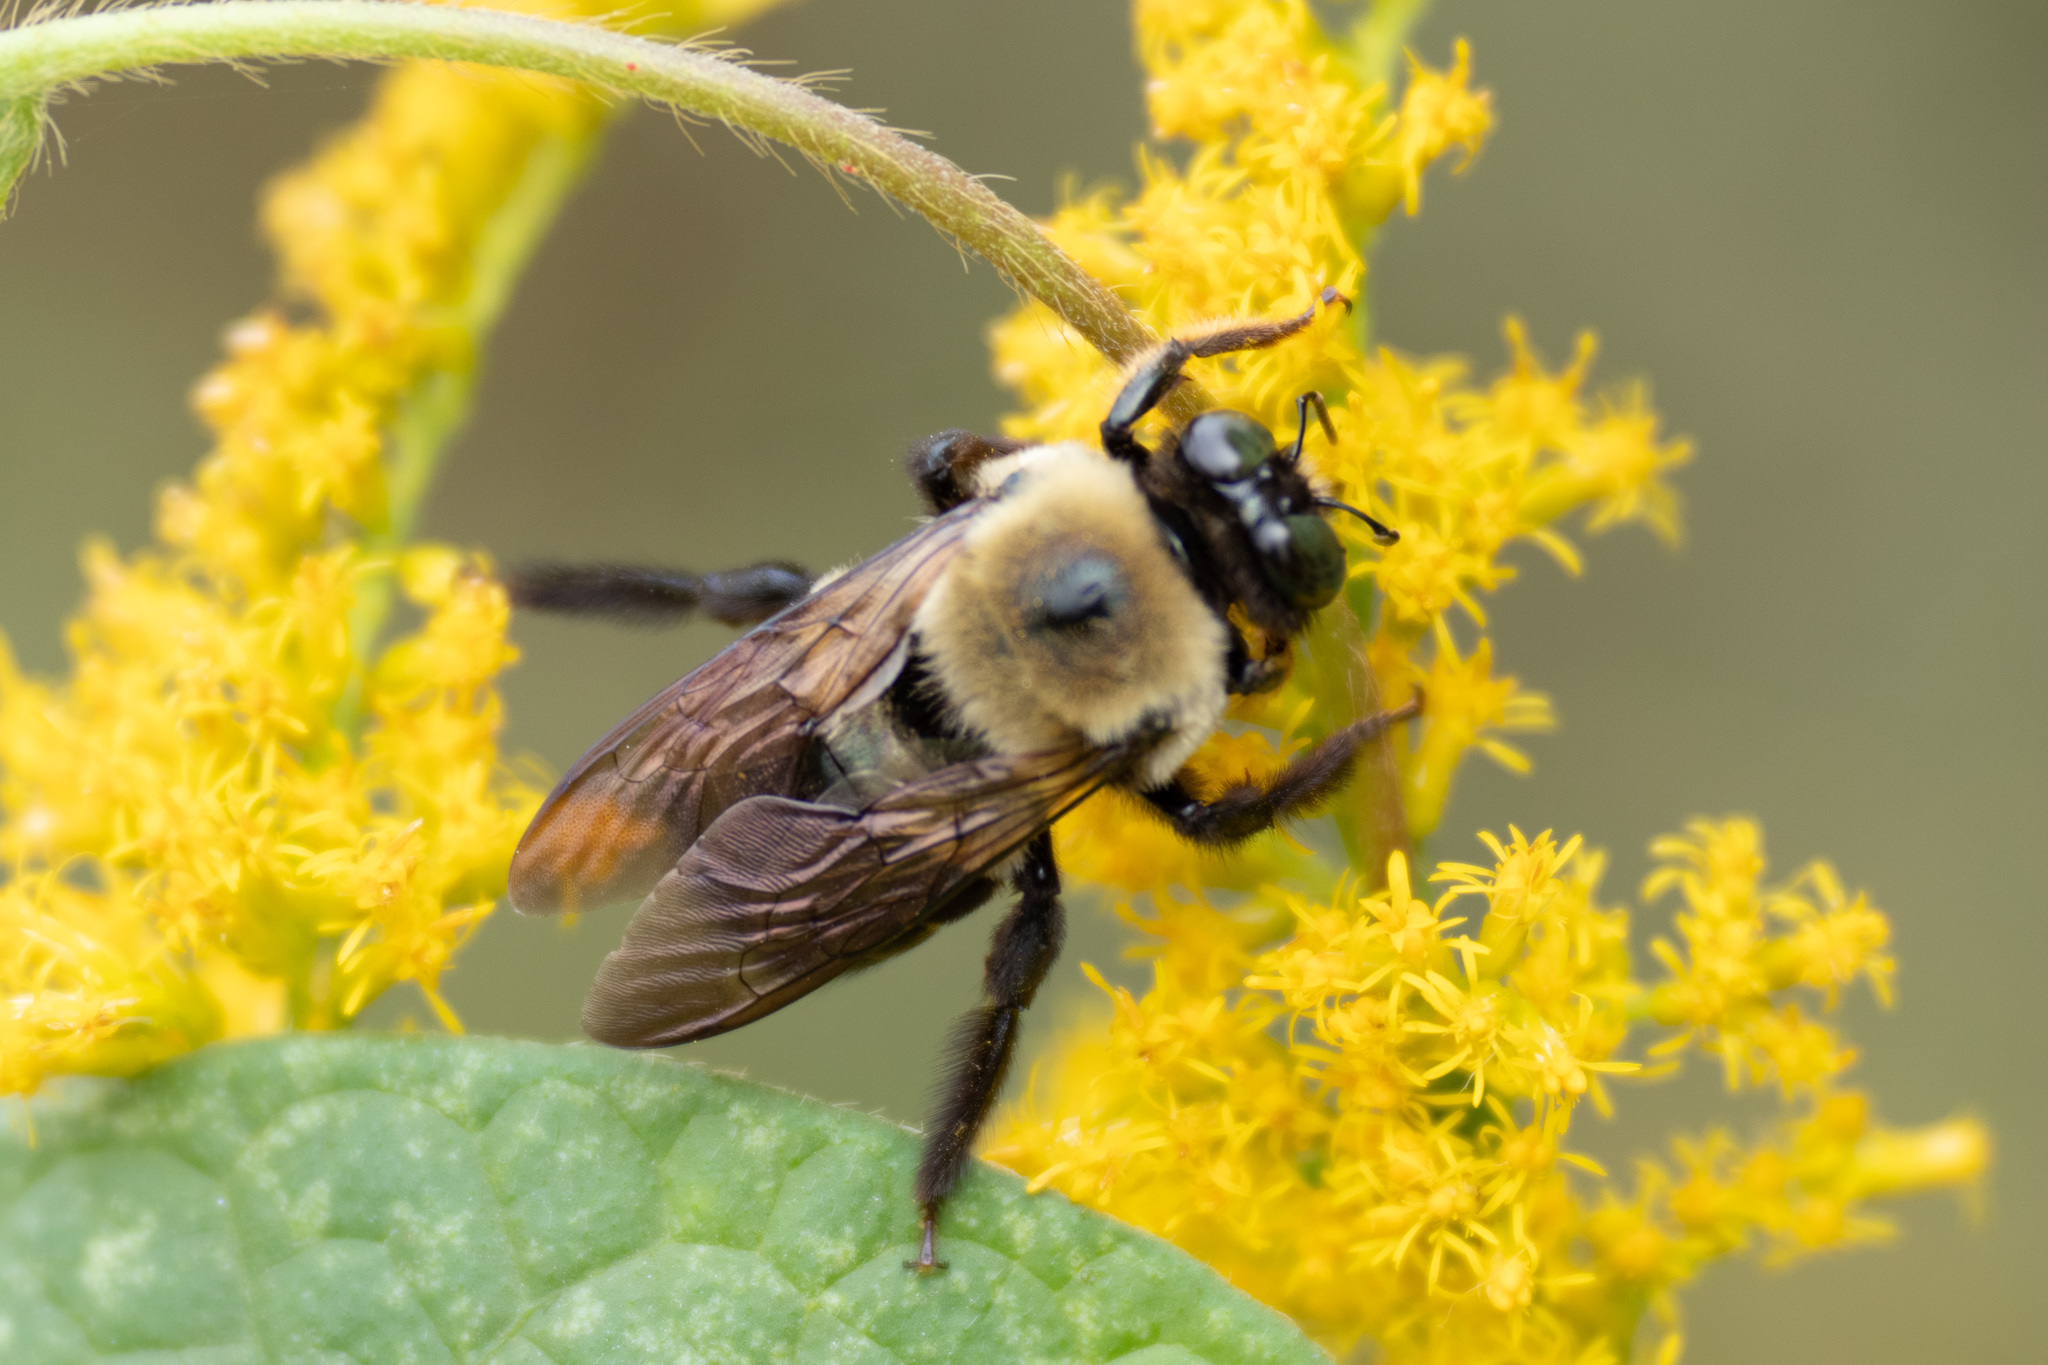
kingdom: Animalia
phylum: Arthropoda
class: Insecta
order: Hymenoptera
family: Apidae
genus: Xylocopa
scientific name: Xylocopa virginica
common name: Carpenter bee
